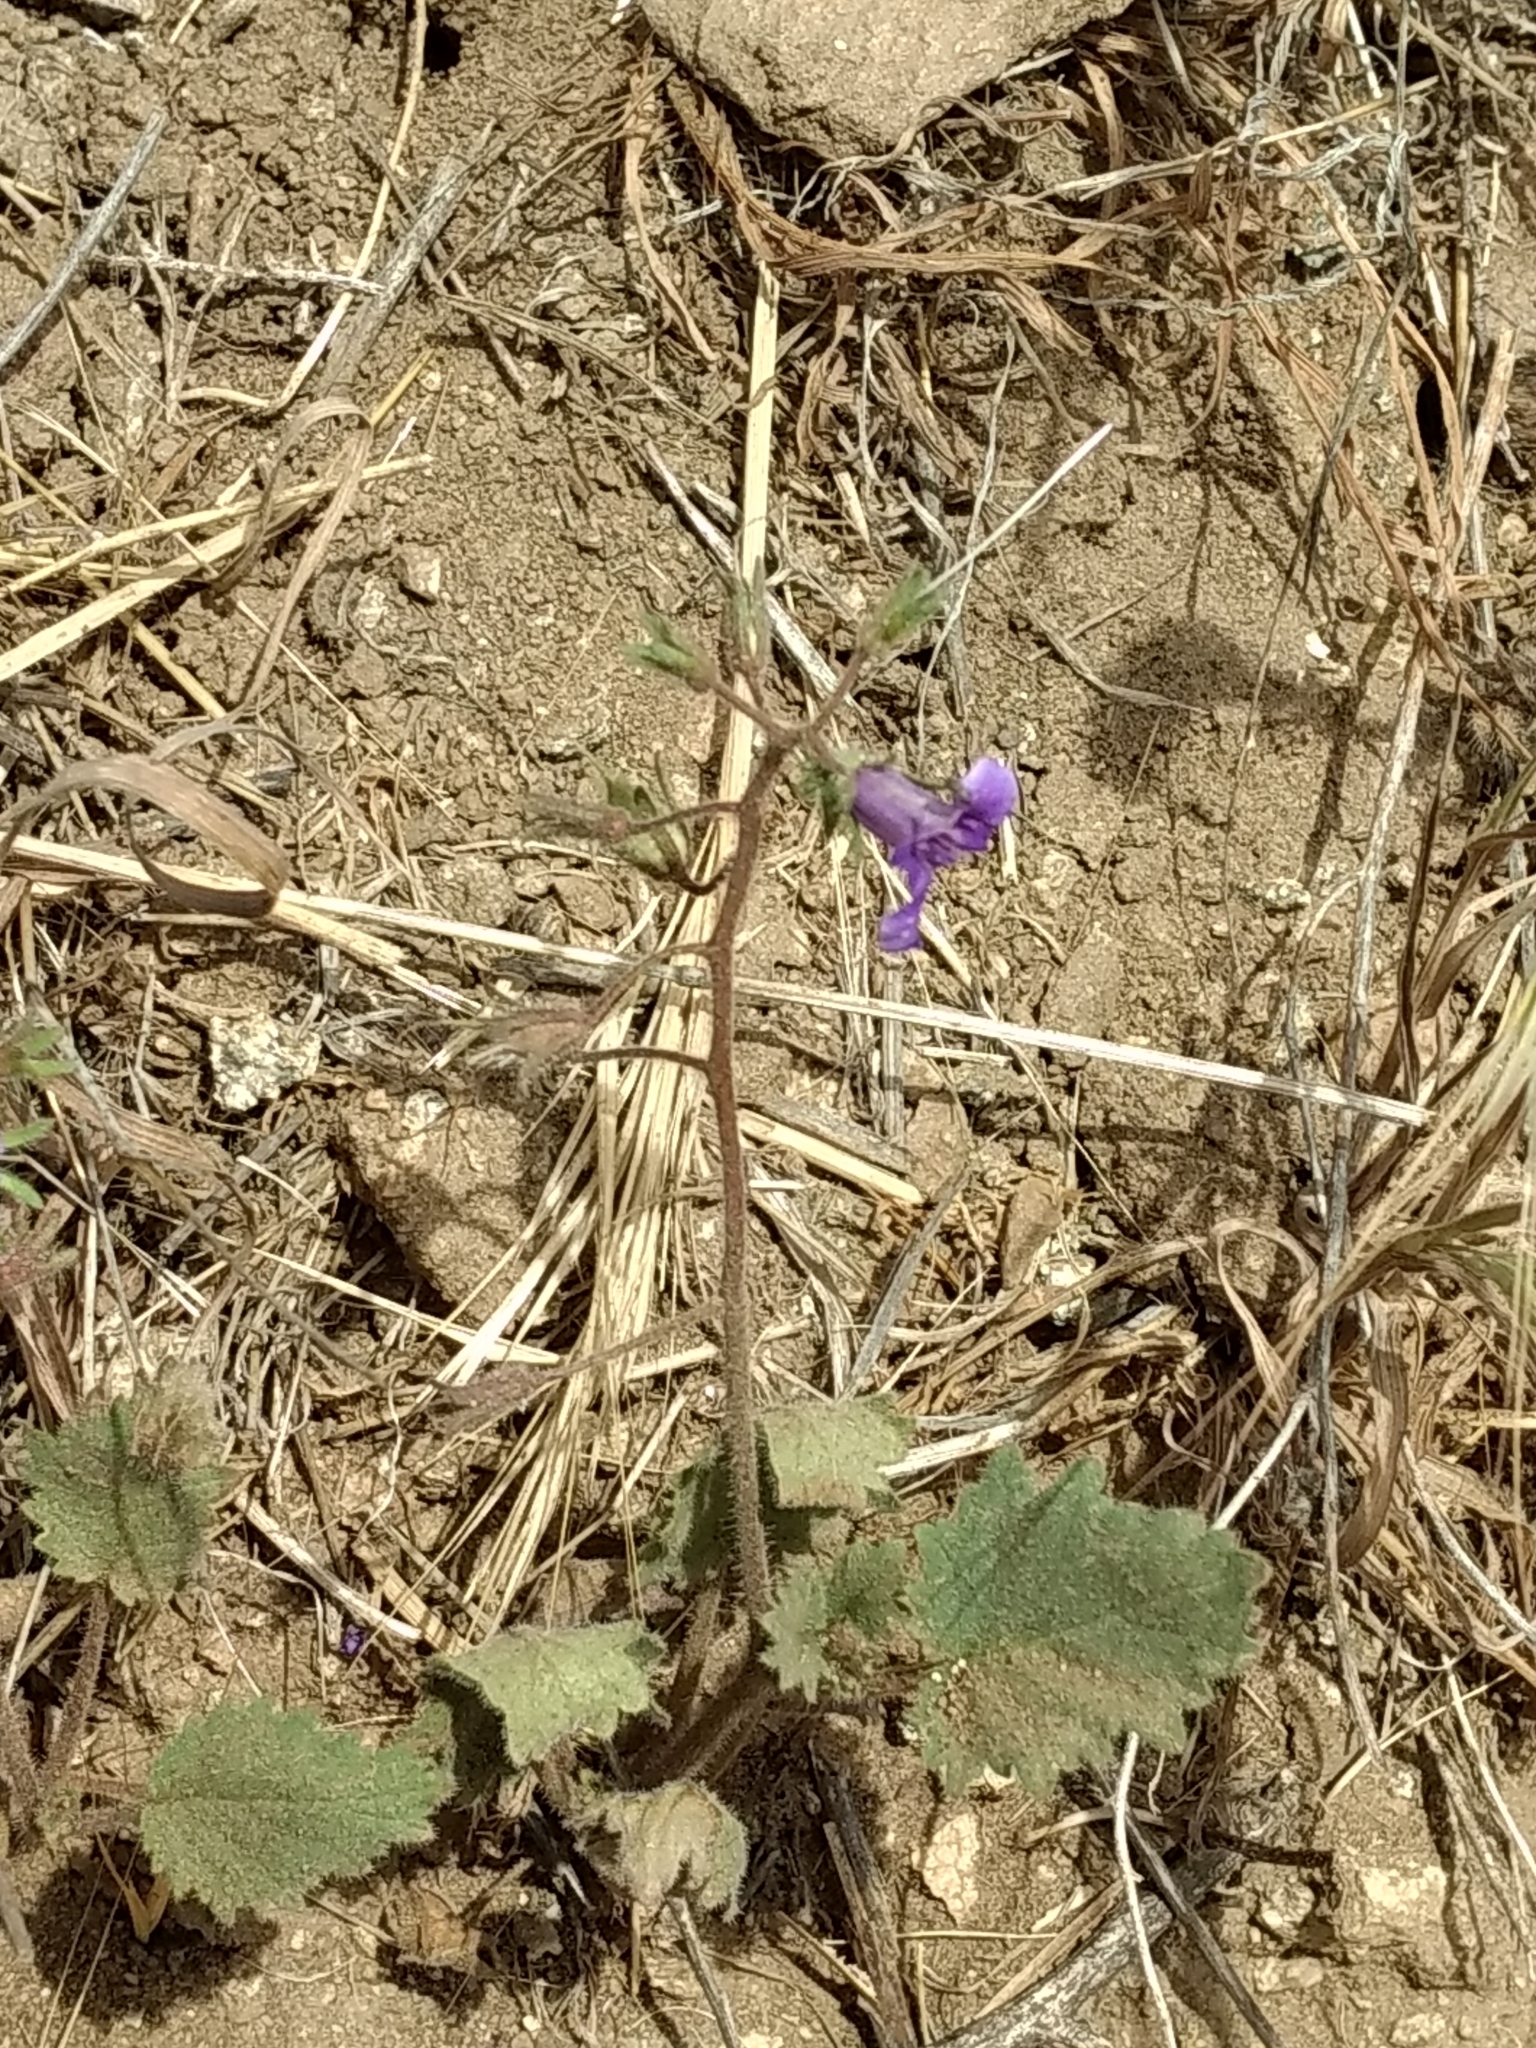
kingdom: Plantae
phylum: Tracheophyta
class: Magnoliopsida
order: Boraginales
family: Hydrophyllaceae
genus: Phacelia
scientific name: Phacelia minor
